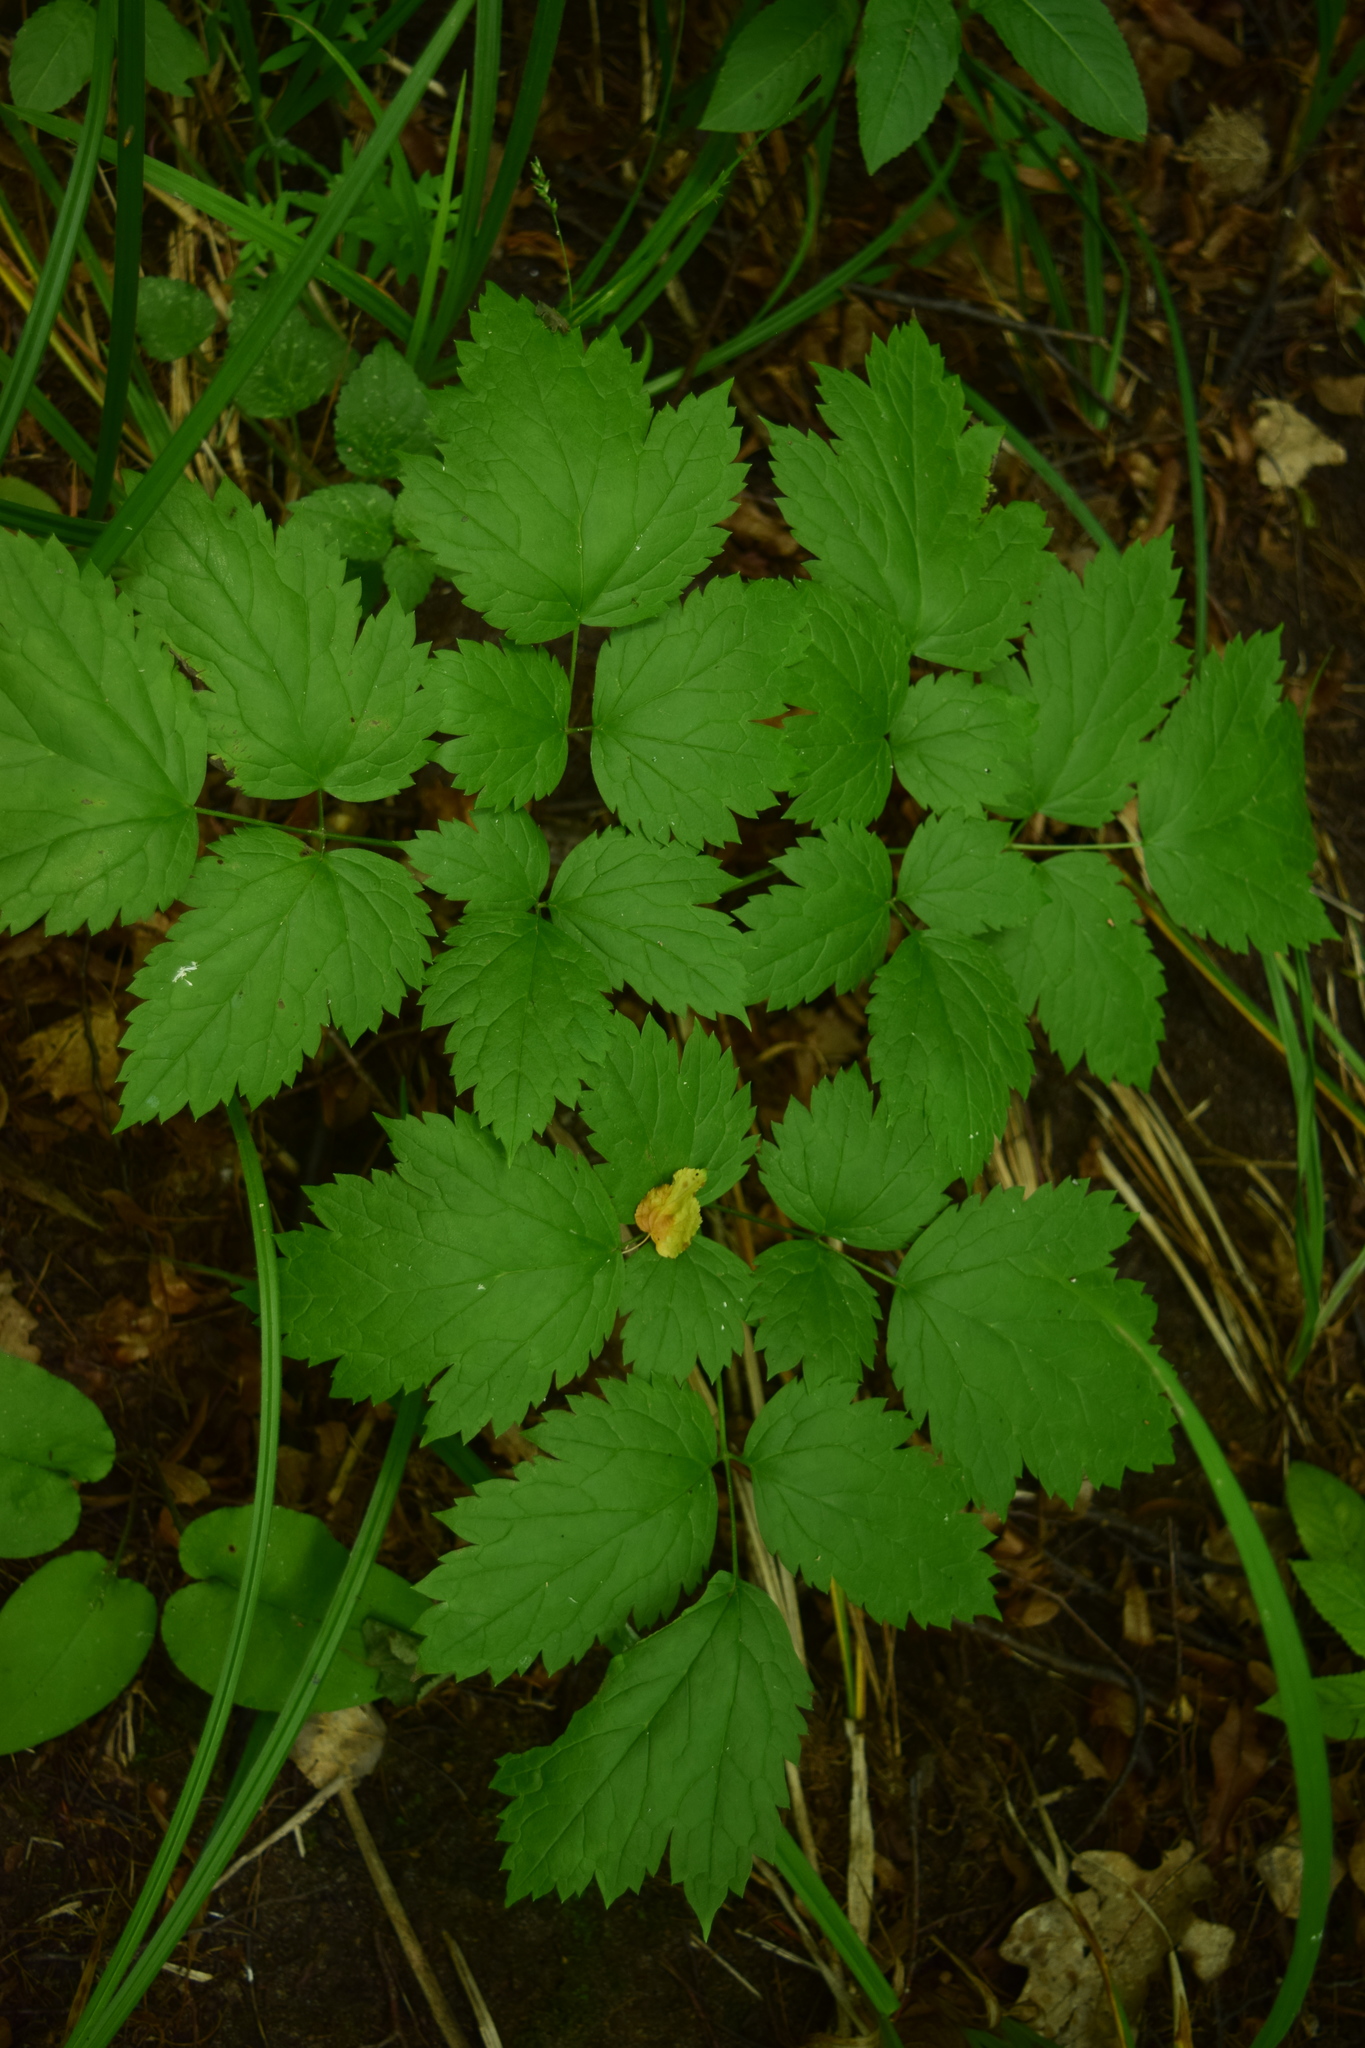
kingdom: Plantae
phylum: Tracheophyta
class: Magnoliopsida
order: Ranunculales
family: Ranunculaceae
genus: Actaea
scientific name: Actaea spicata
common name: Baneberry
